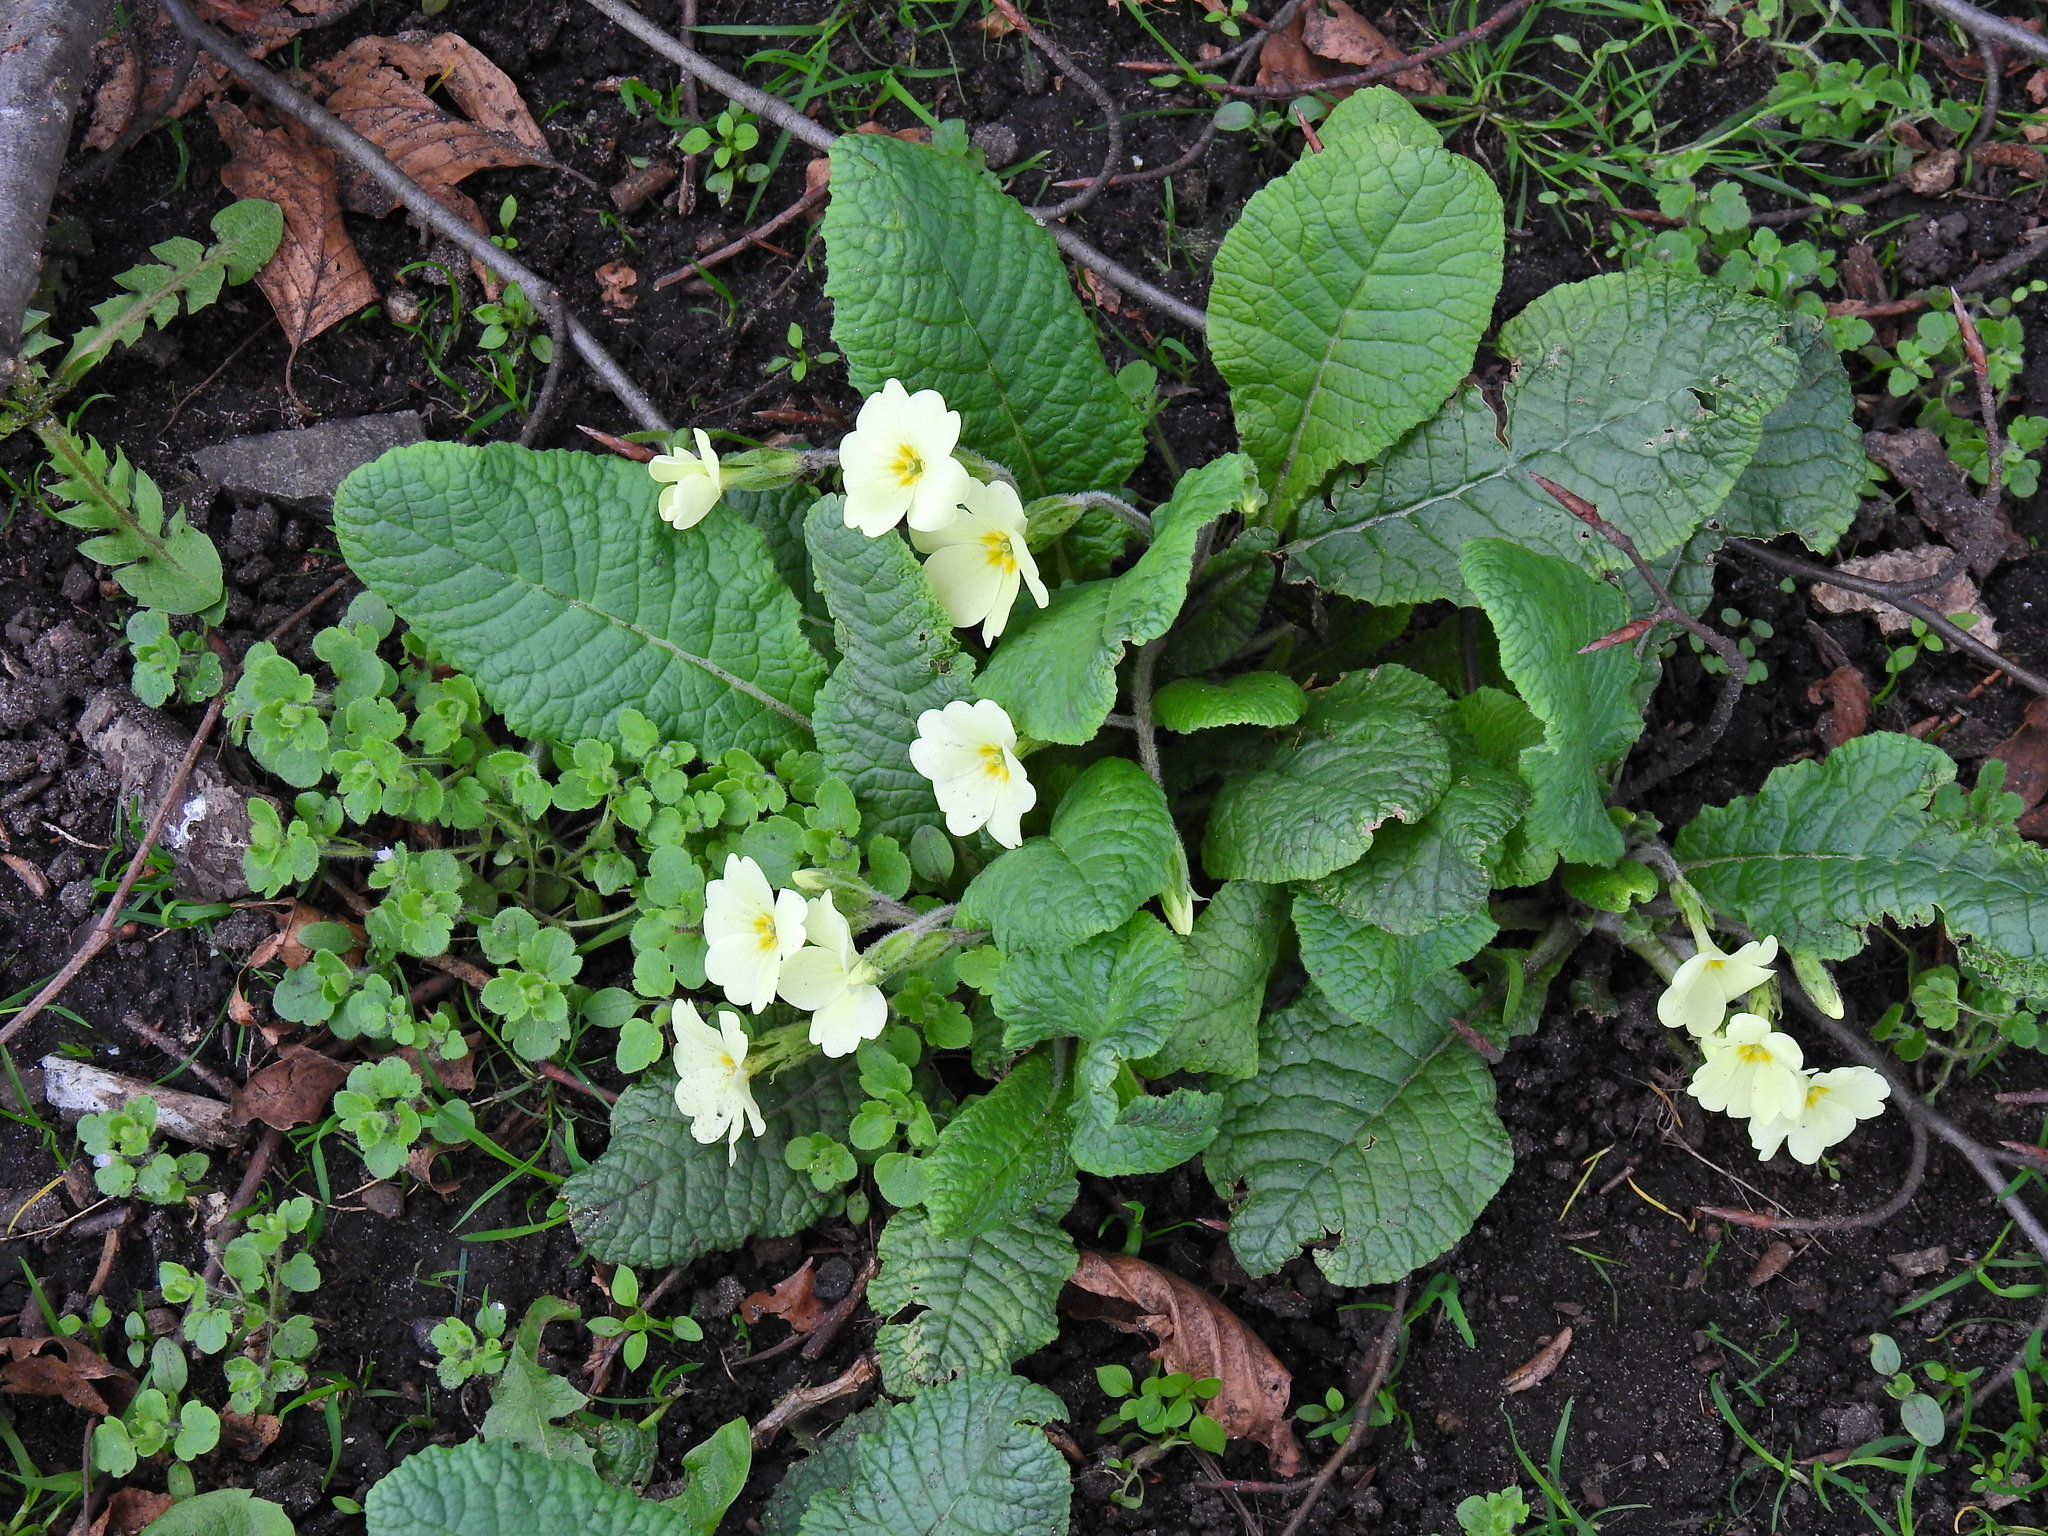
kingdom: Plantae
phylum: Tracheophyta
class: Magnoliopsida
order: Ericales
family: Primulaceae
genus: Primula
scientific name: Primula vulgaris
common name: Primrose
